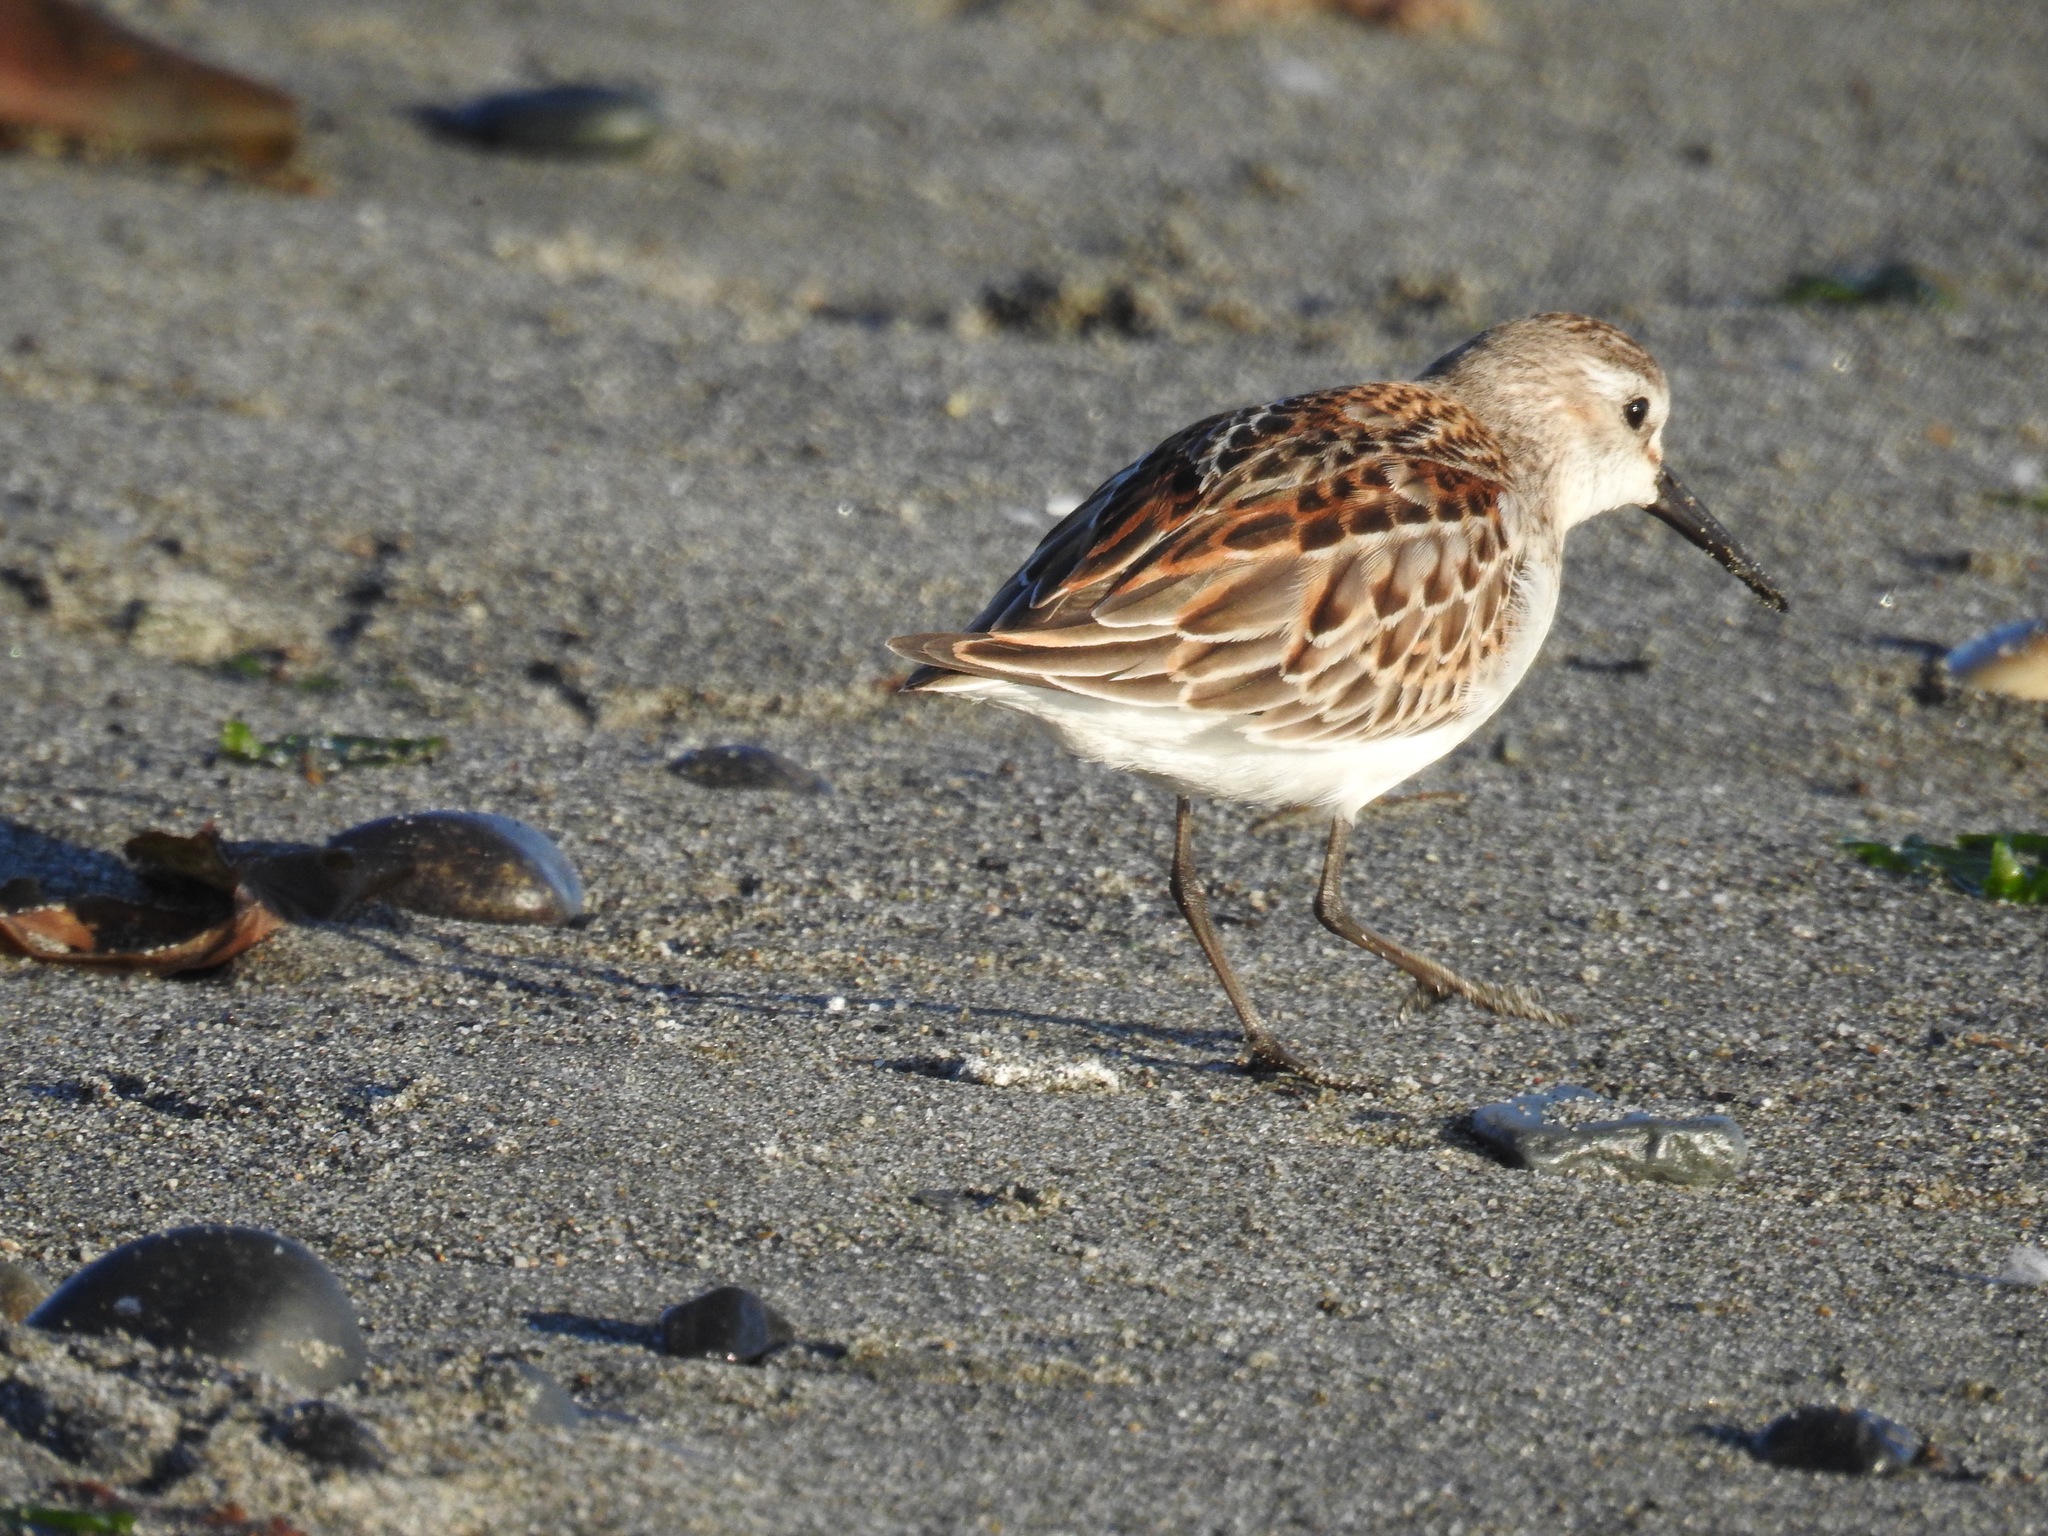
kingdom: Animalia
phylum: Chordata
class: Aves
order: Charadriiformes
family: Scolopacidae
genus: Calidris
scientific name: Calidris minutilla
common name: Least sandpiper
